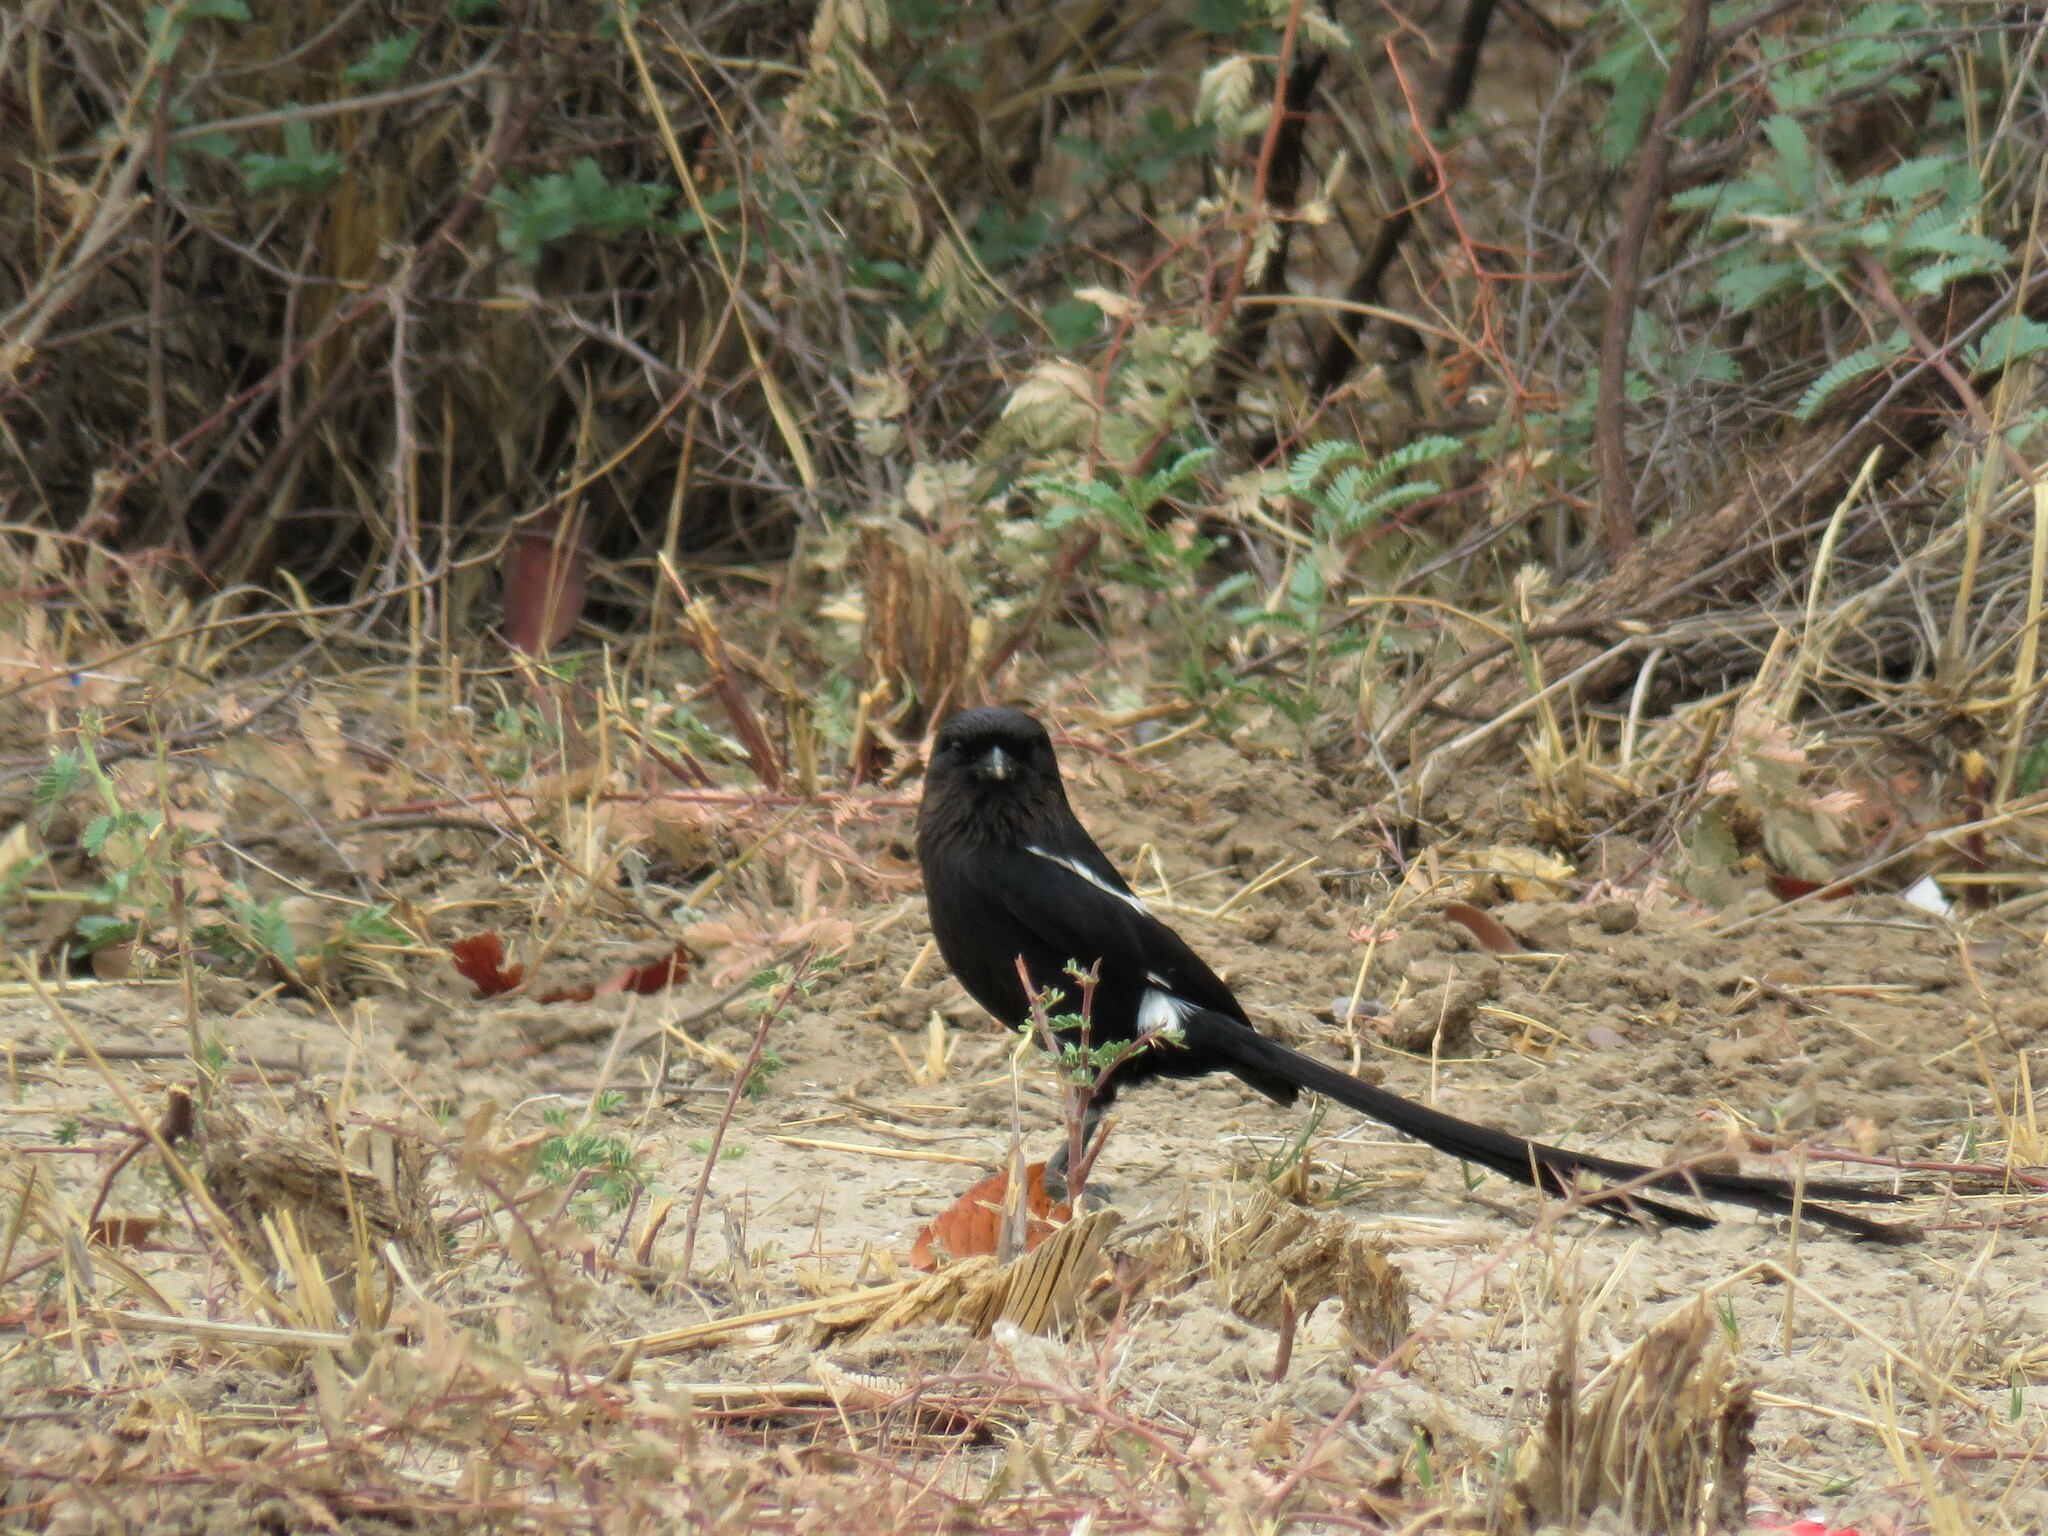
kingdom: Animalia
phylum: Chordata
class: Aves
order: Passeriformes
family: Laniidae
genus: Urolestes
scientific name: Urolestes melanoleucus
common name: Magpie shrike
